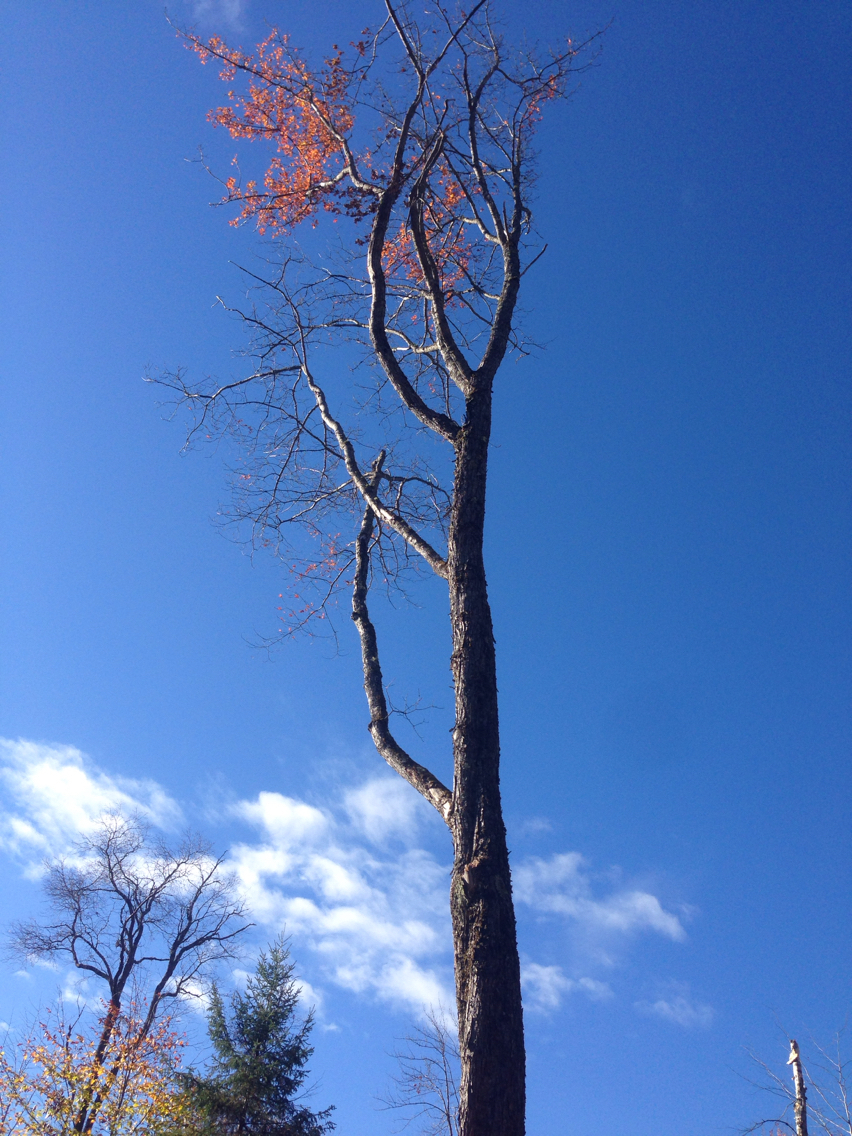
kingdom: Plantae
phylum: Tracheophyta
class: Magnoliopsida
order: Sapindales
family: Sapindaceae
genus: Acer
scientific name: Acer rubrum
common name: Red maple
